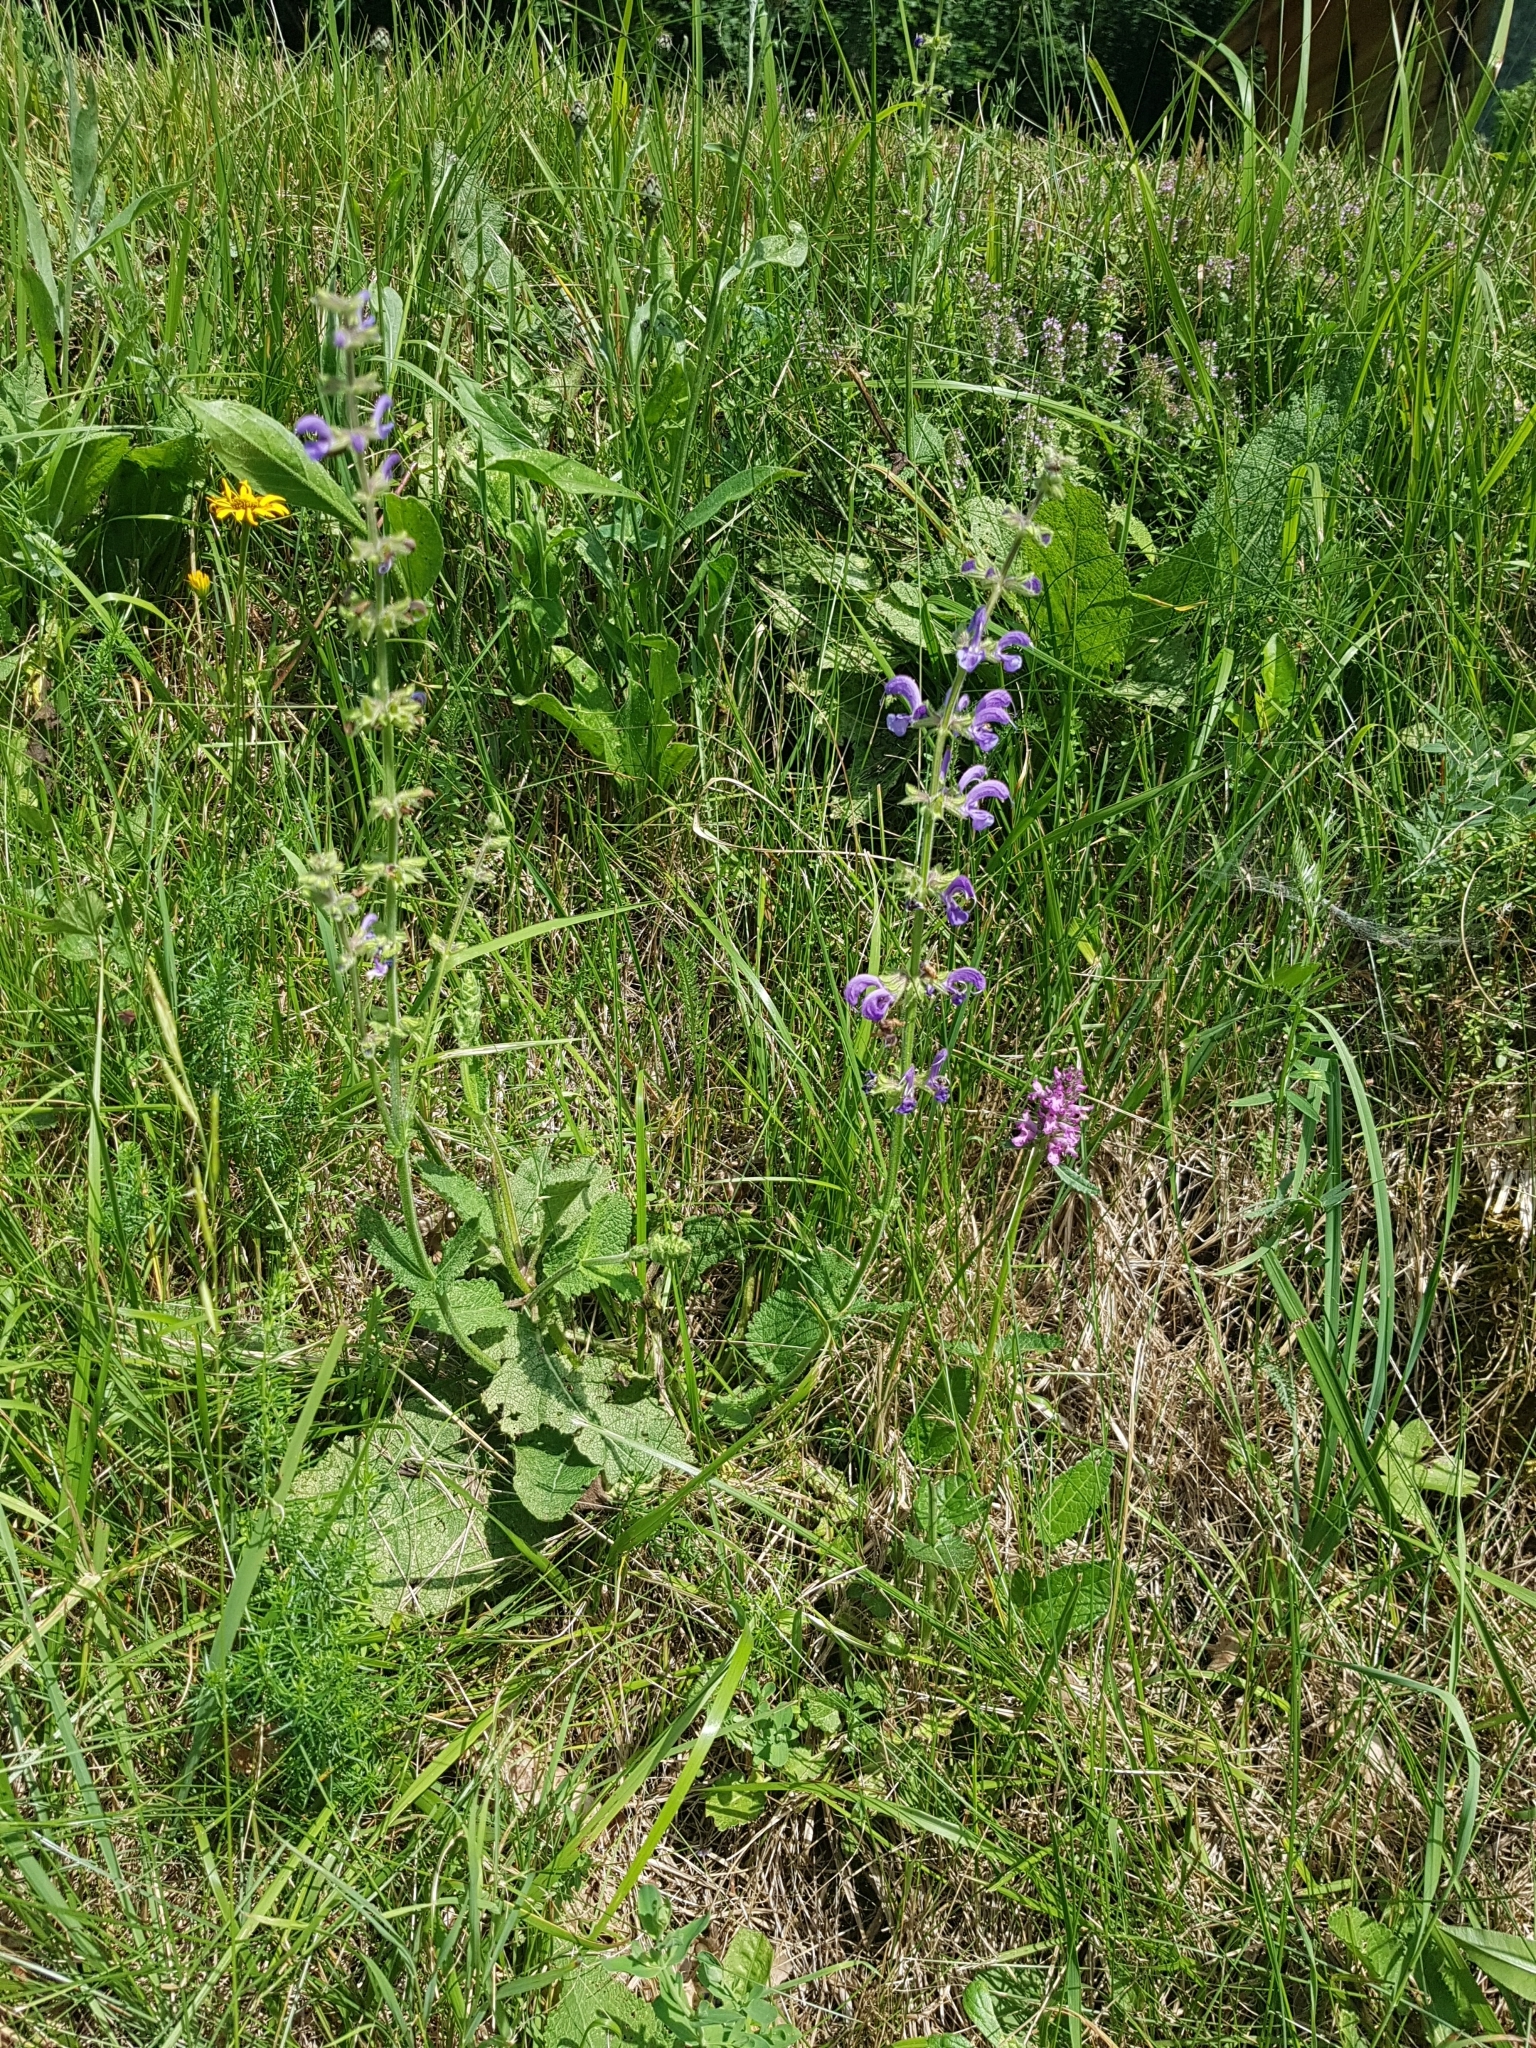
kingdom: Plantae
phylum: Tracheophyta
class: Magnoliopsida
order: Lamiales
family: Lamiaceae
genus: Salvia
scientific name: Salvia pratensis
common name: Meadow sage
